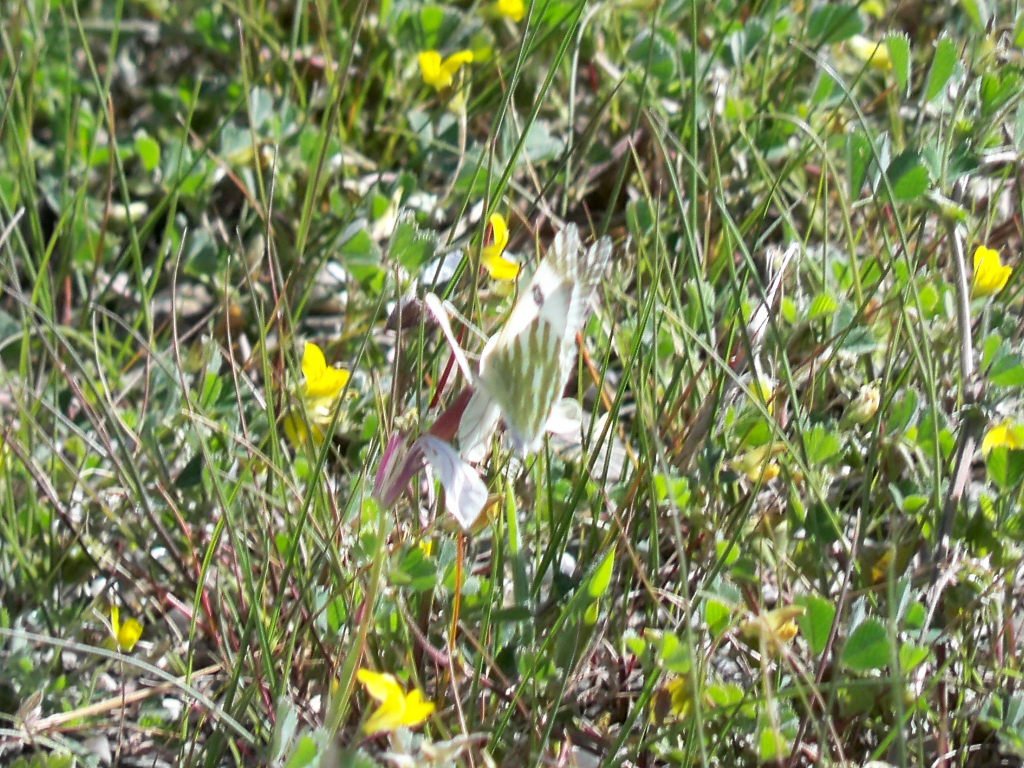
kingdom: Animalia
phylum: Arthropoda
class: Insecta
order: Lepidoptera
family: Pieridae
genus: Euchloe
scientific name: Euchloe belemia
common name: Green-striped white
